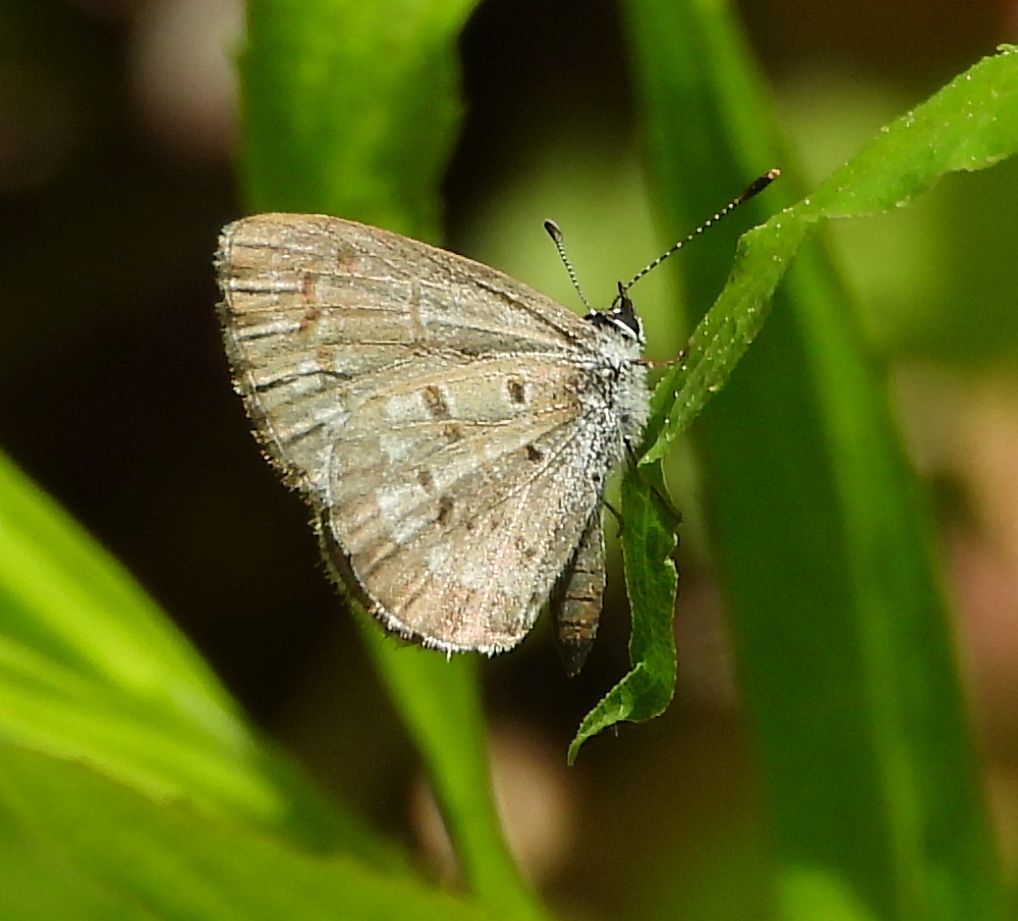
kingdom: Animalia
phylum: Arthropoda
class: Insecta
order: Lepidoptera
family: Lycaenidae
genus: Celastrina
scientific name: Celastrina lucia
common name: Lucia azure
